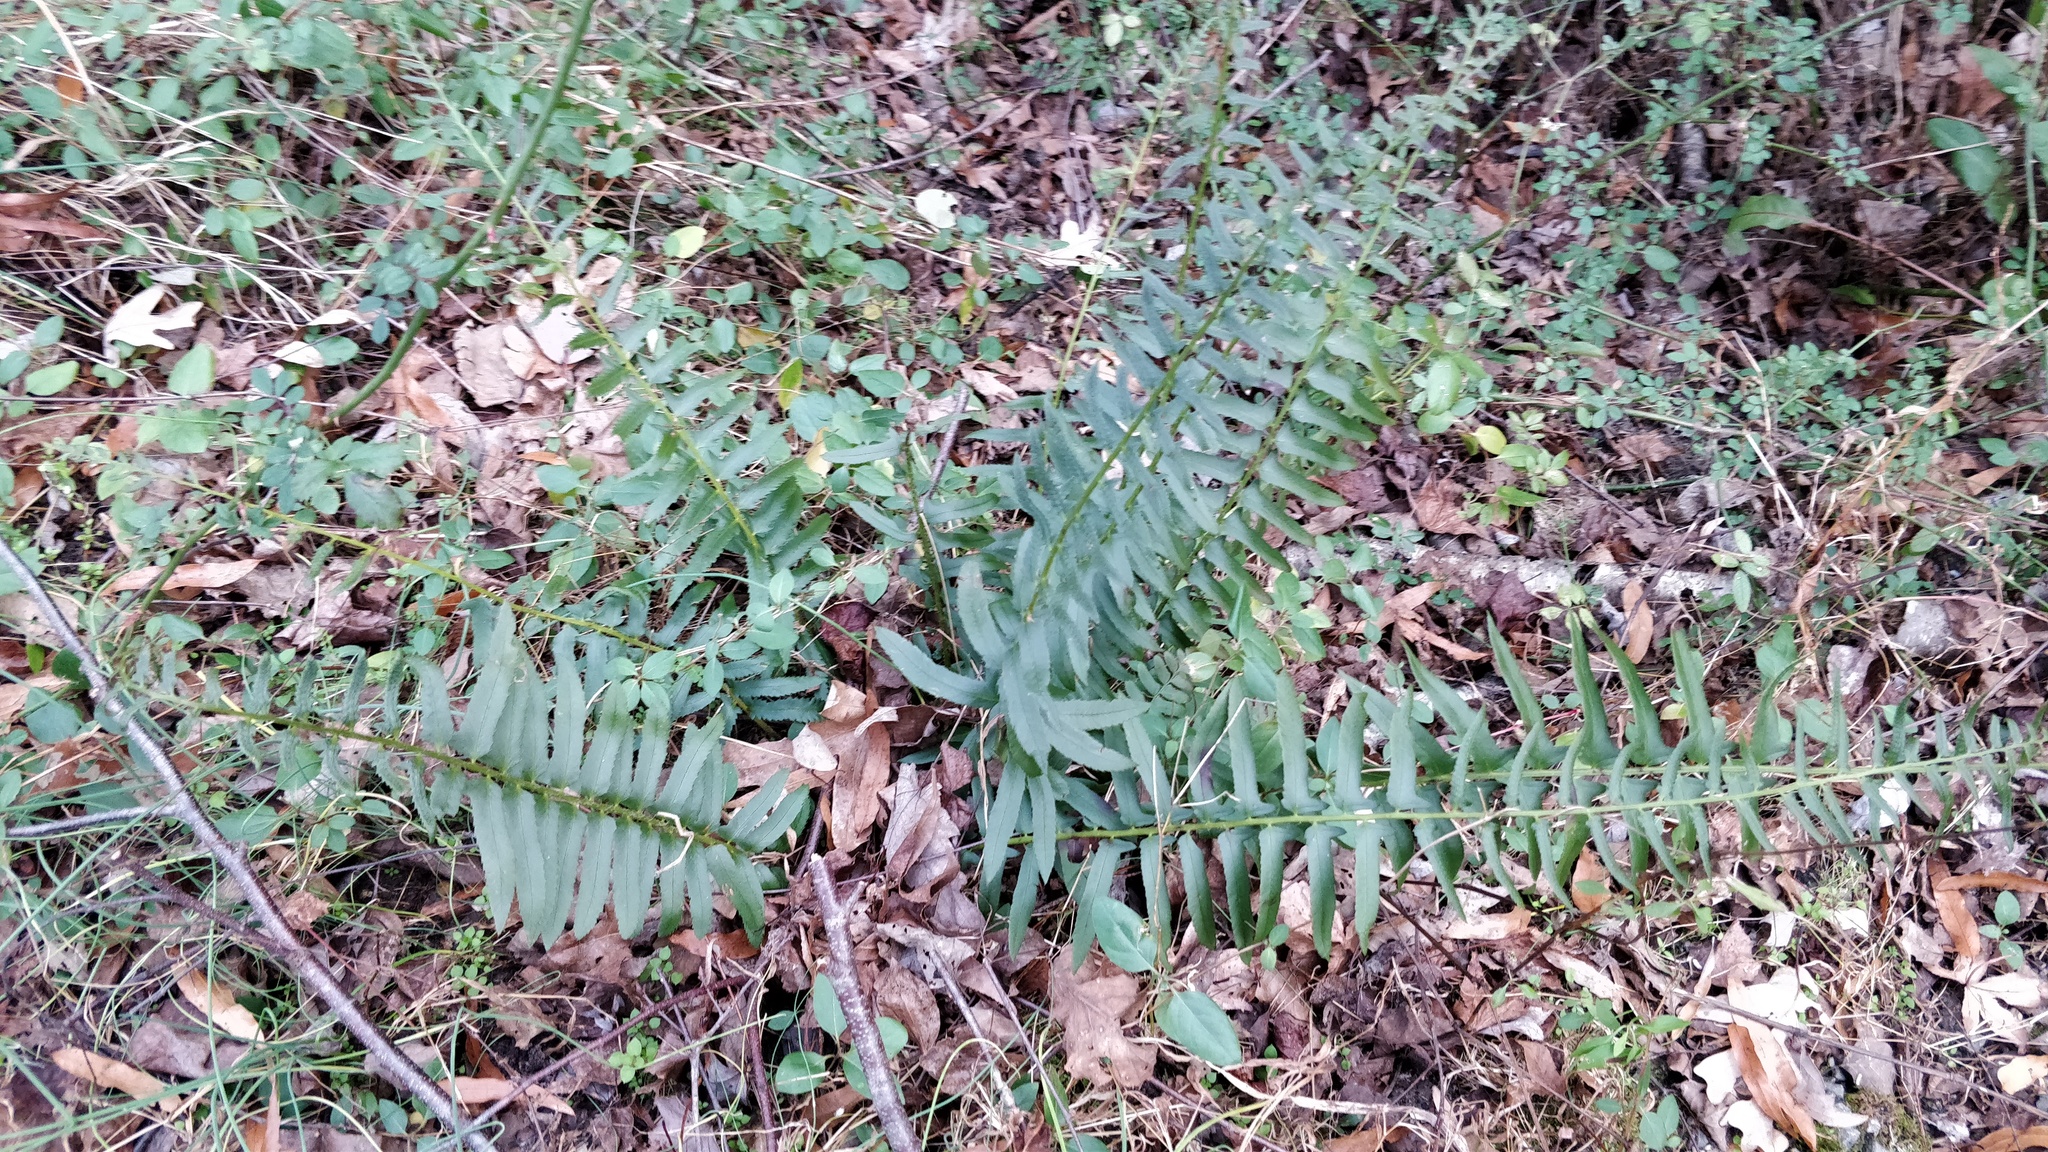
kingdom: Plantae
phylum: Tracheophyta
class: Polypodiopsida
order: Polypodiales
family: Dryopteridaceae
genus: Polystichum
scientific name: Polystichum acrostichoides
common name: Christmas fern
